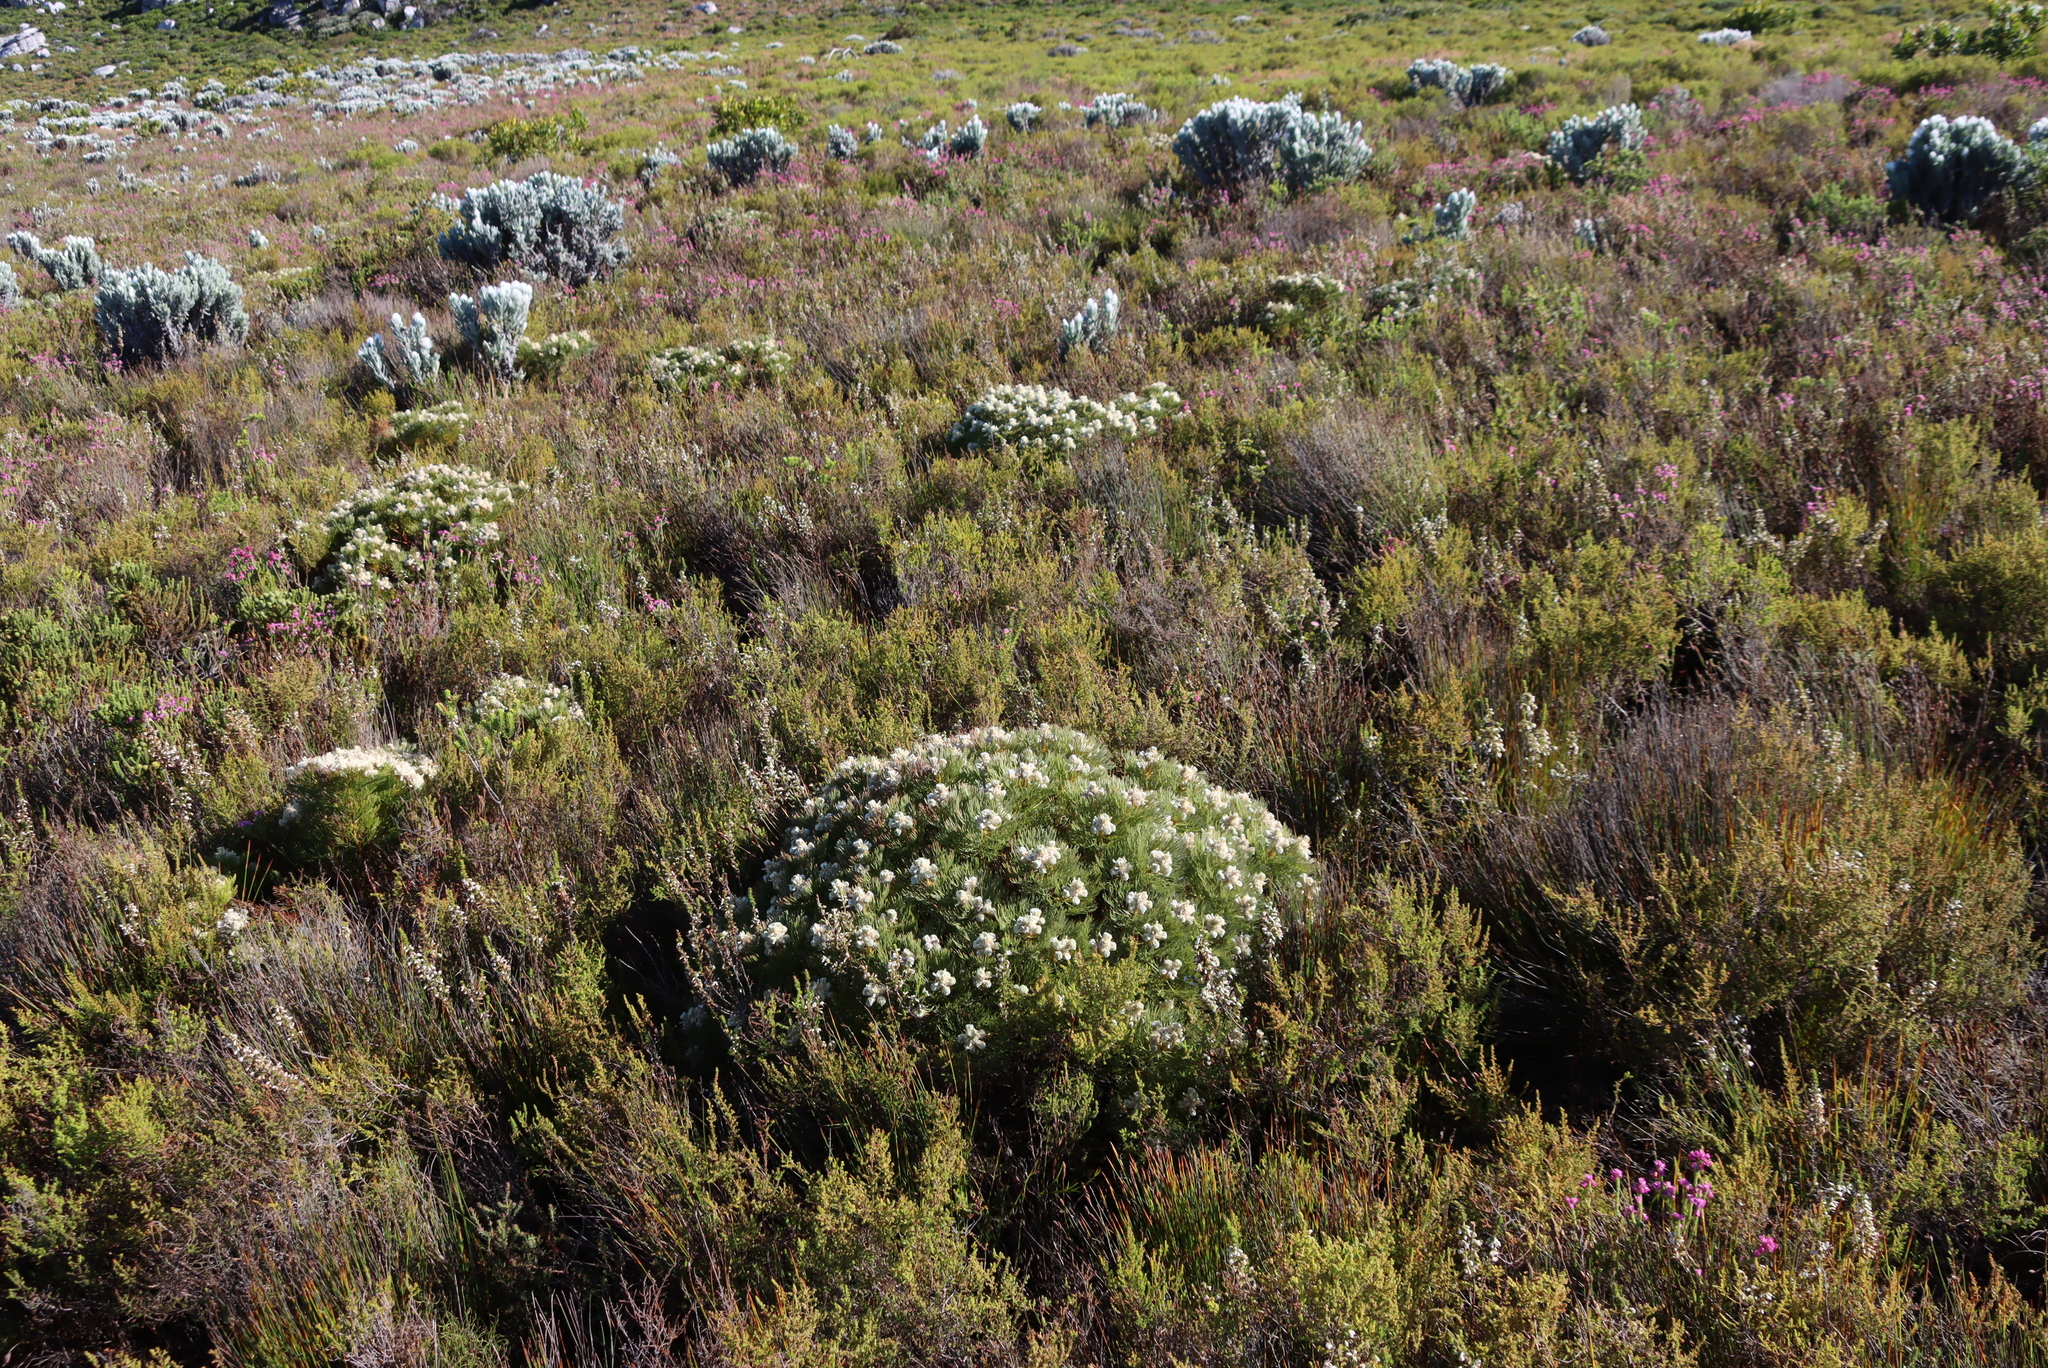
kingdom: Plantae
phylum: Tracheophyta
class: Magnoliopsida
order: Proteales
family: Proteaceae
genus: Serruria
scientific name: Serruria glomerata
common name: Cluster spiderhead
